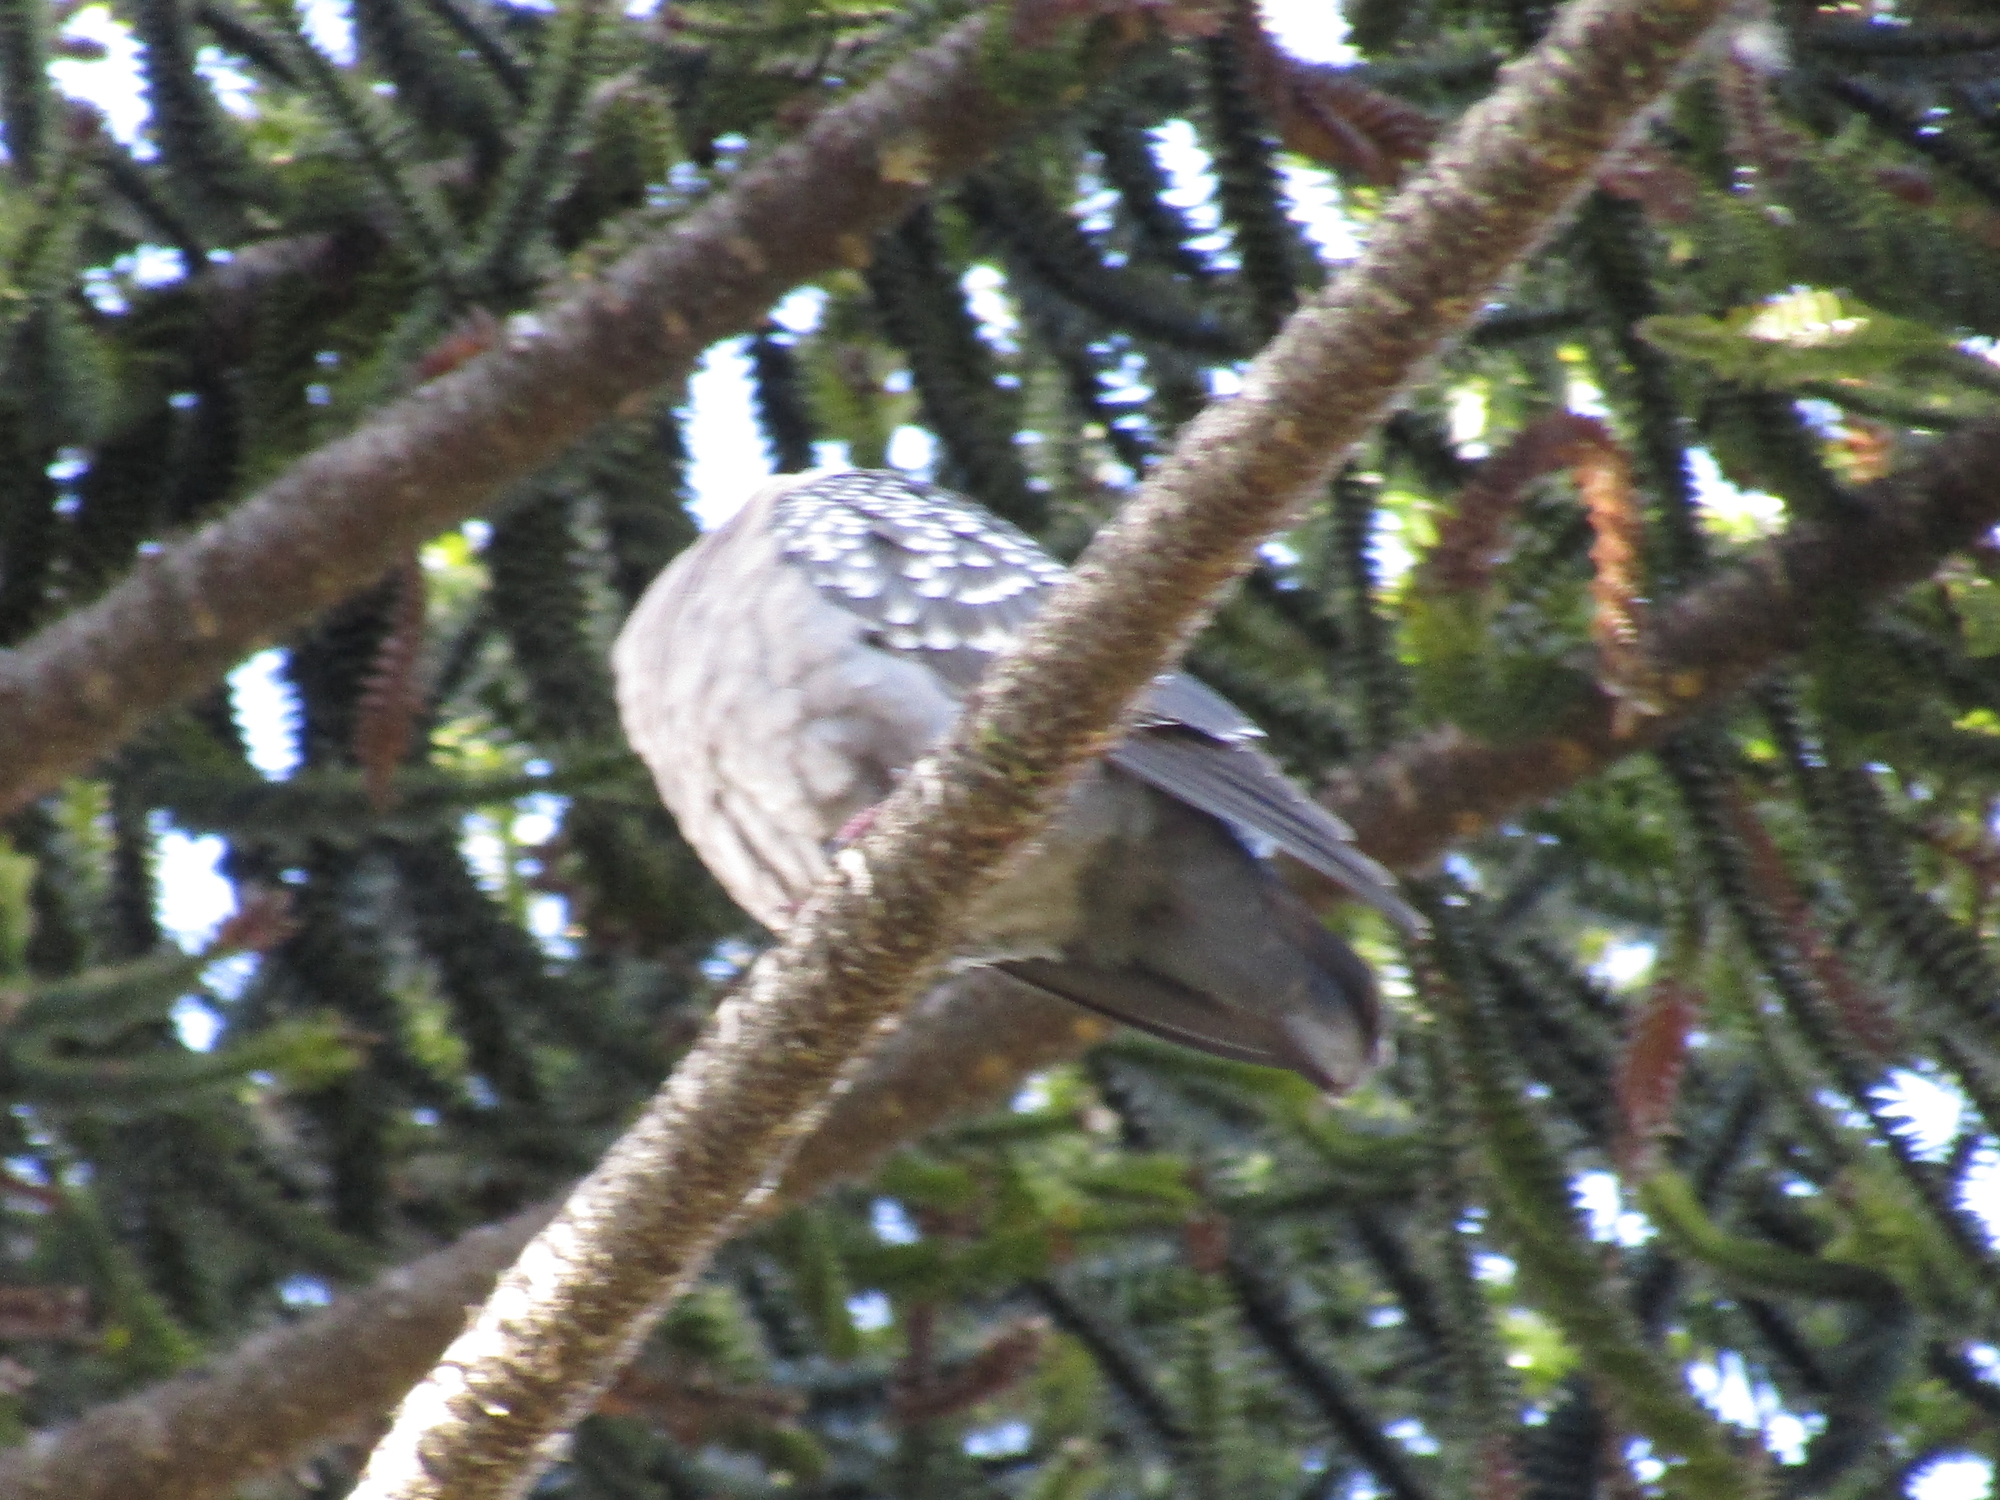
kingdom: Animalia
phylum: Chordata
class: Aves
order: Columbiformes
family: Columbidae
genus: Patagioenas
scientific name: Patagioenas maculosa
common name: Spot-winged pigeon
